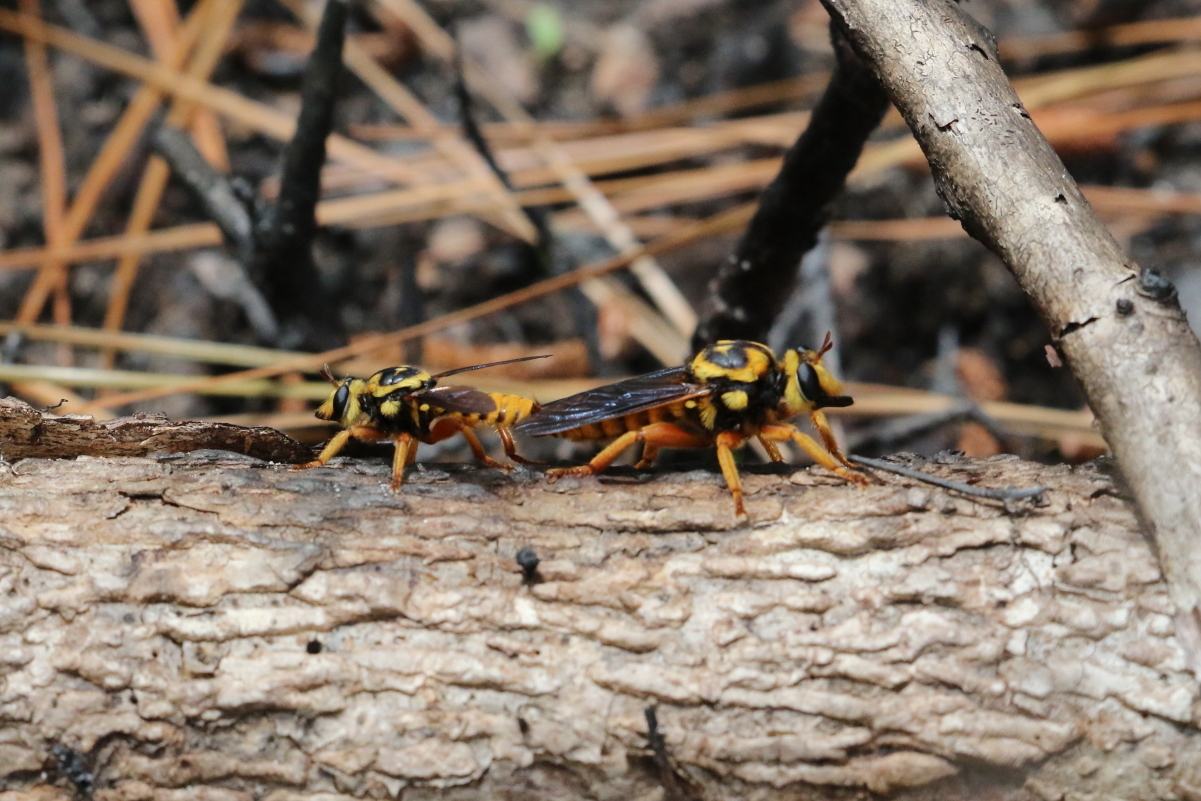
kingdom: Animalia
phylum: Arthropoda
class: Insecta
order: Diptera
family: Asilidae
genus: Laphria
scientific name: Laphria saffrana
